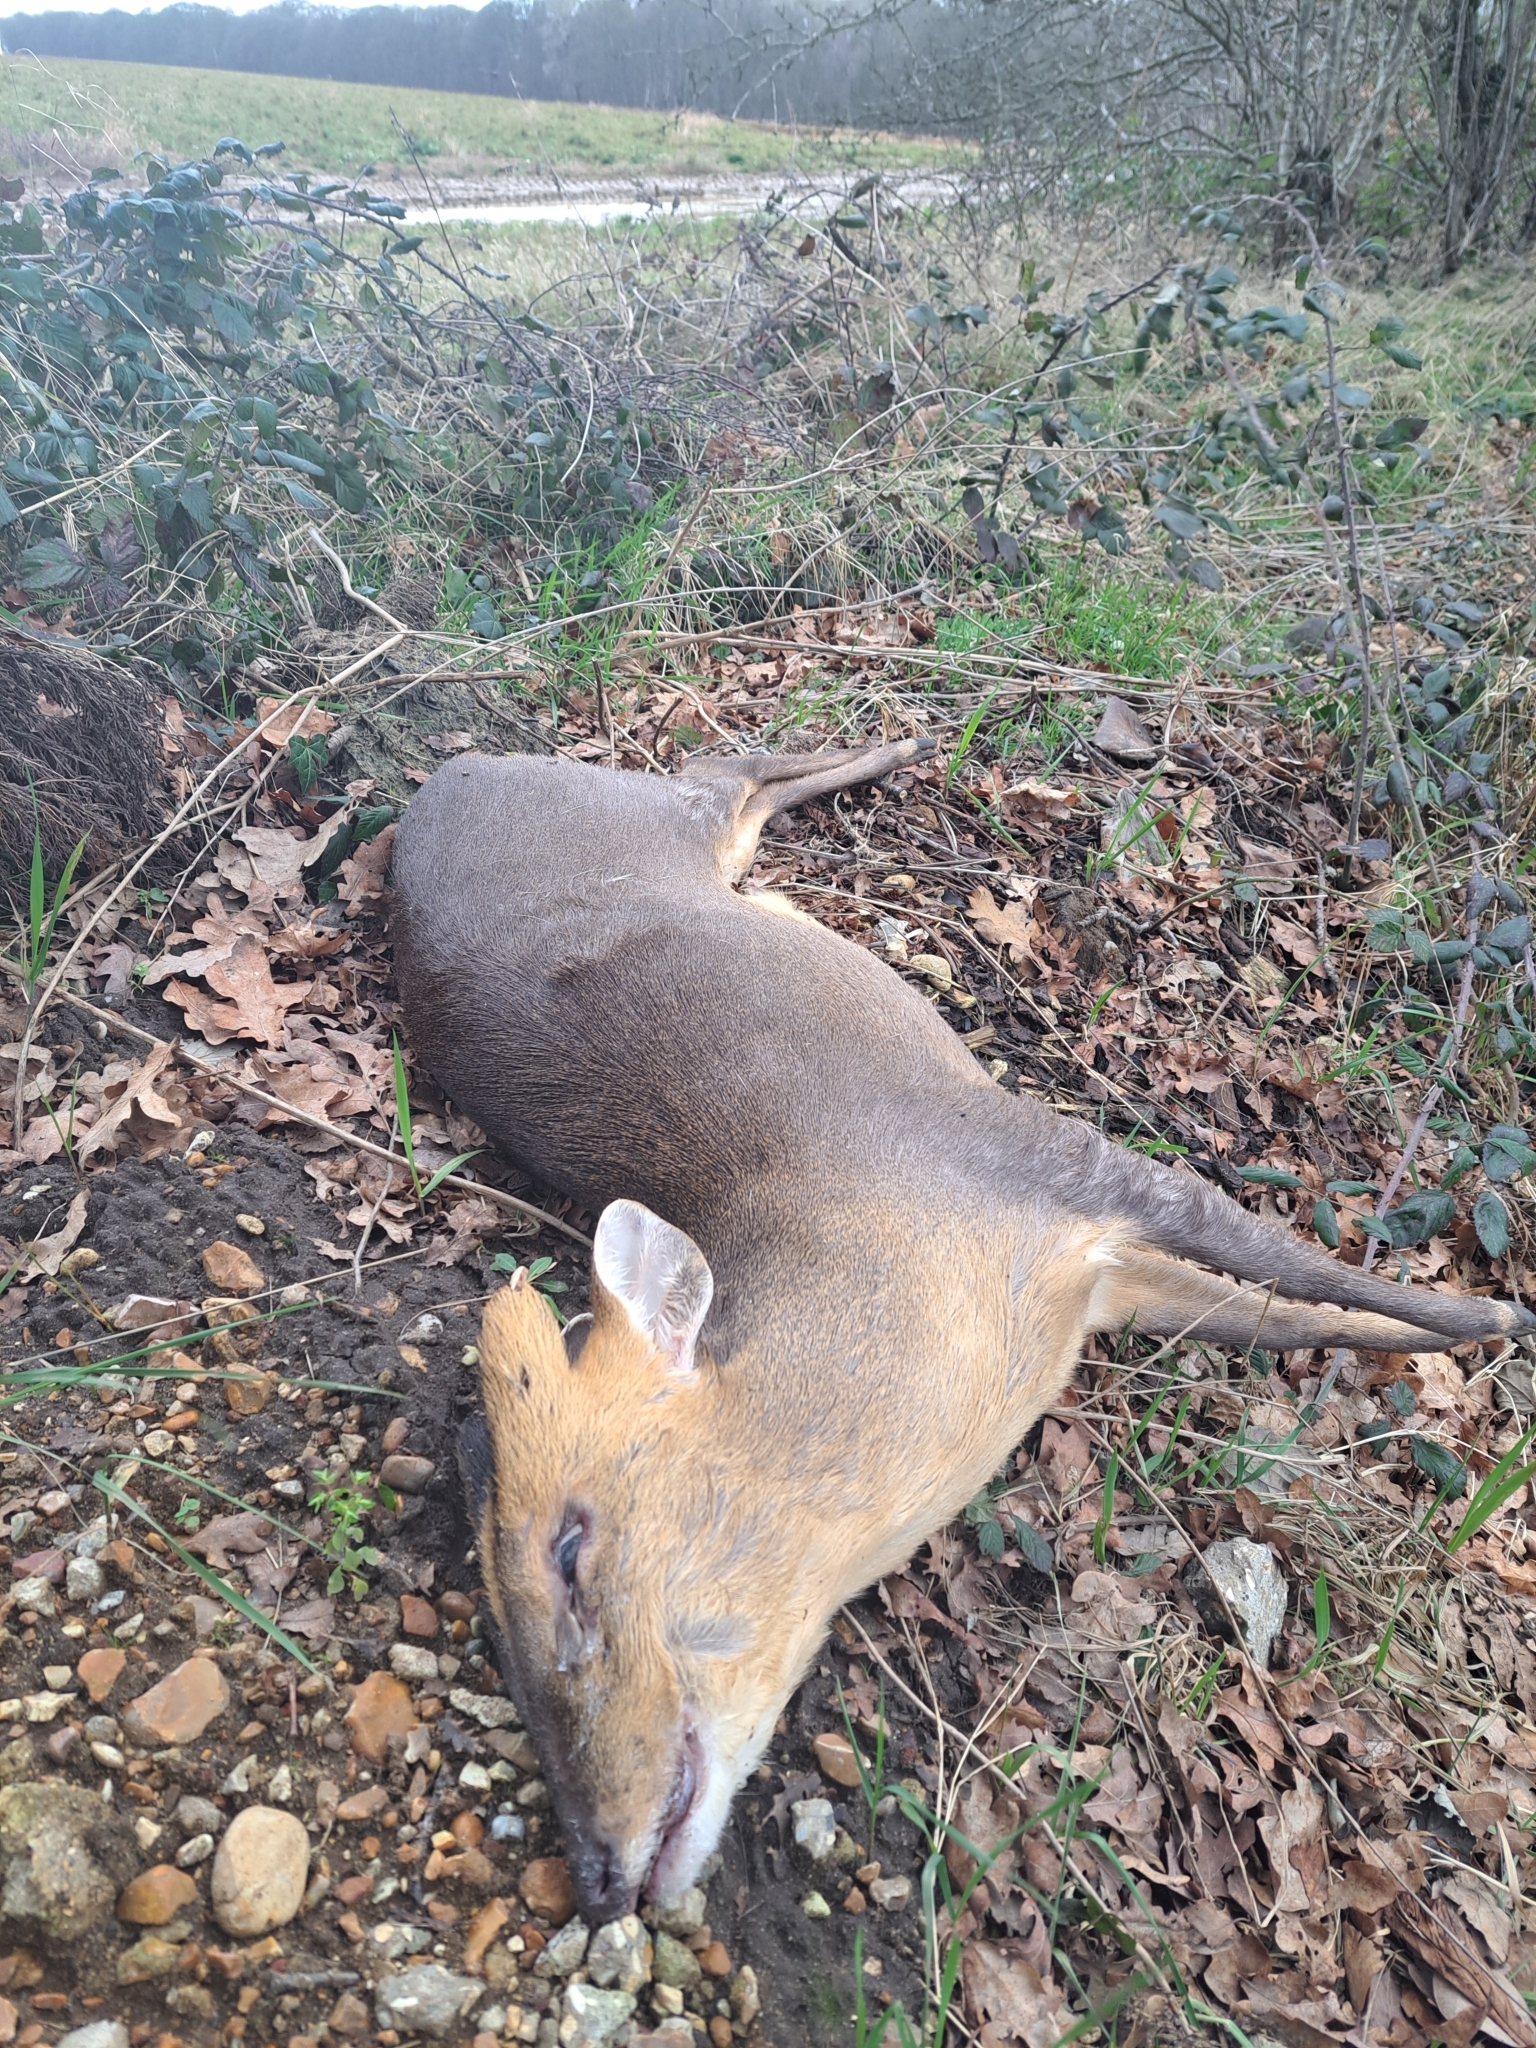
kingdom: Animalia
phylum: Chordata
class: Mammalia
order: Artiodactyla
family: Cervidae
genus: Muntiacus
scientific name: Muntiacus reevesi
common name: Reeves' muntjac
